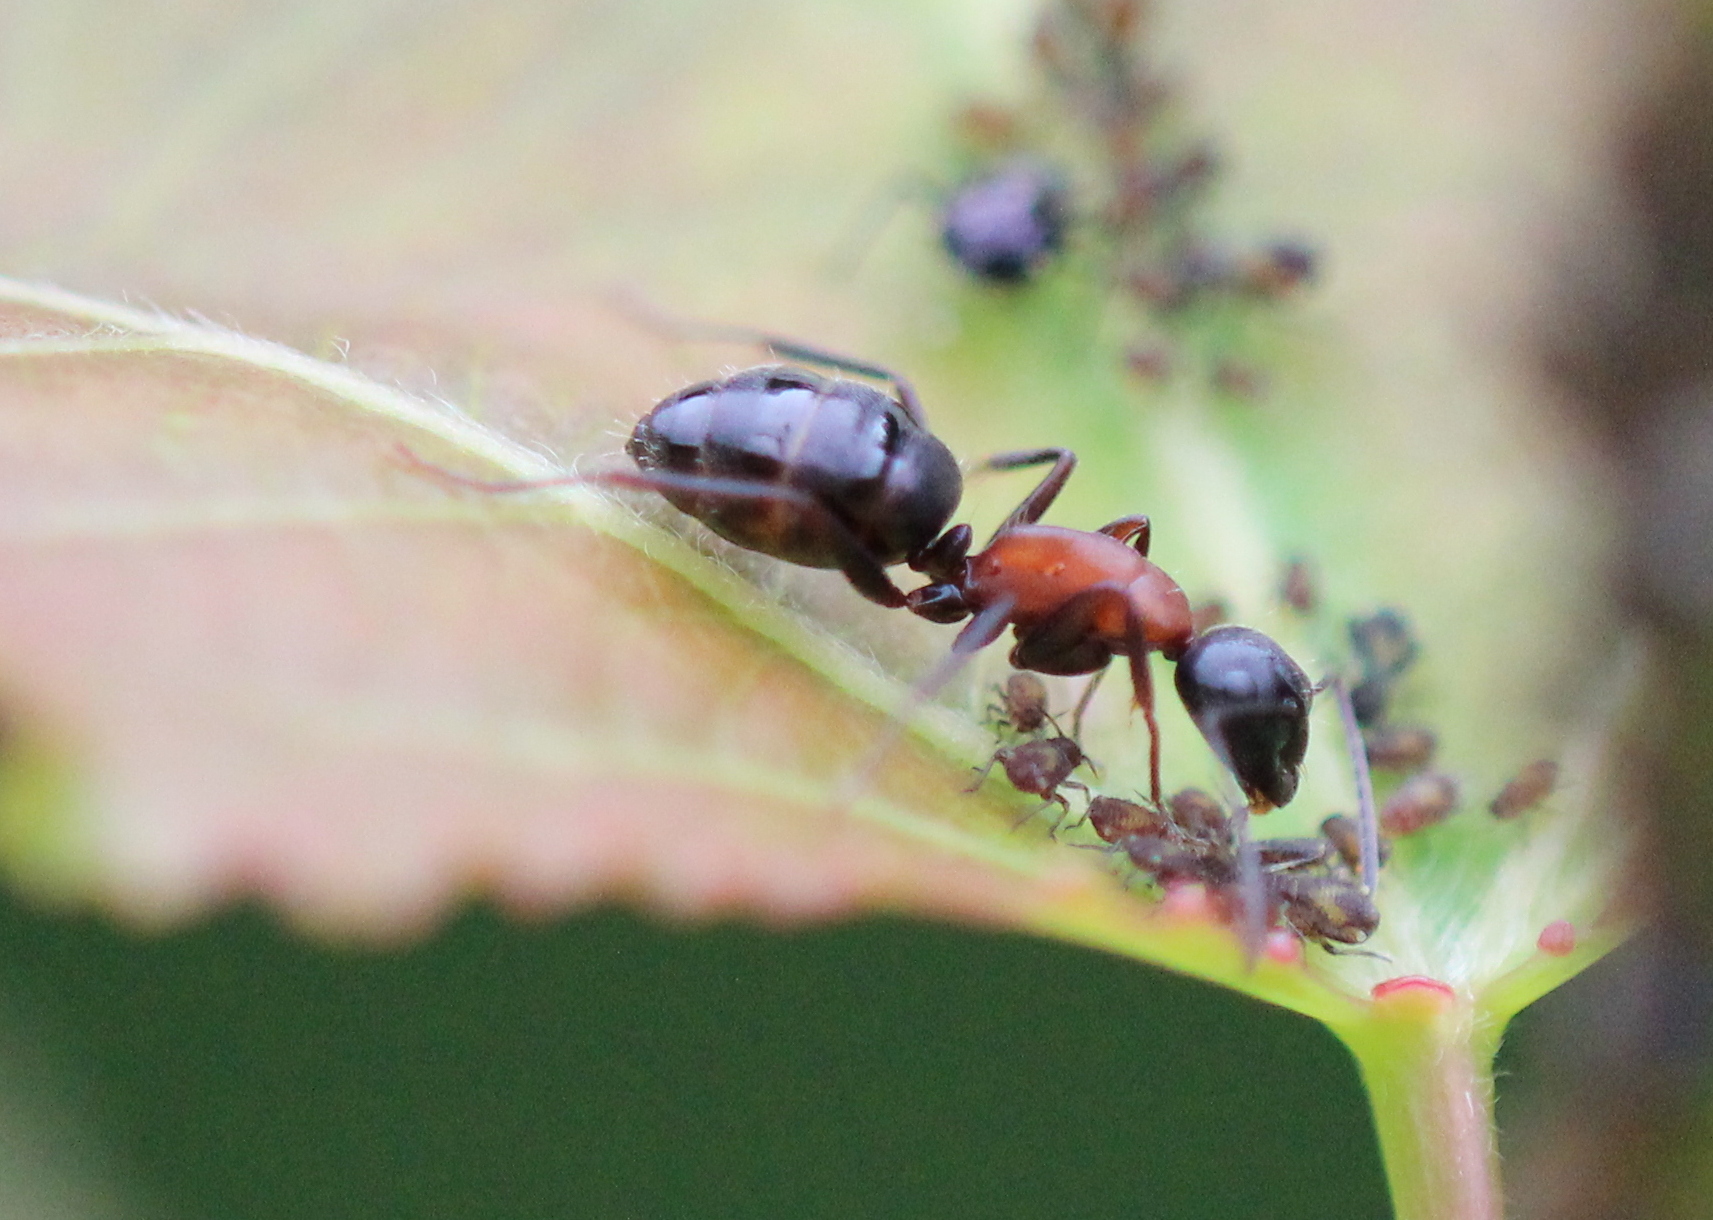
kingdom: Animalia
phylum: Arthropoda
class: Insecta
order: Hymenoptera
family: Formicidae
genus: Camponotus
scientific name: Camponotus novaeboracensis
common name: New york carpenter ant
